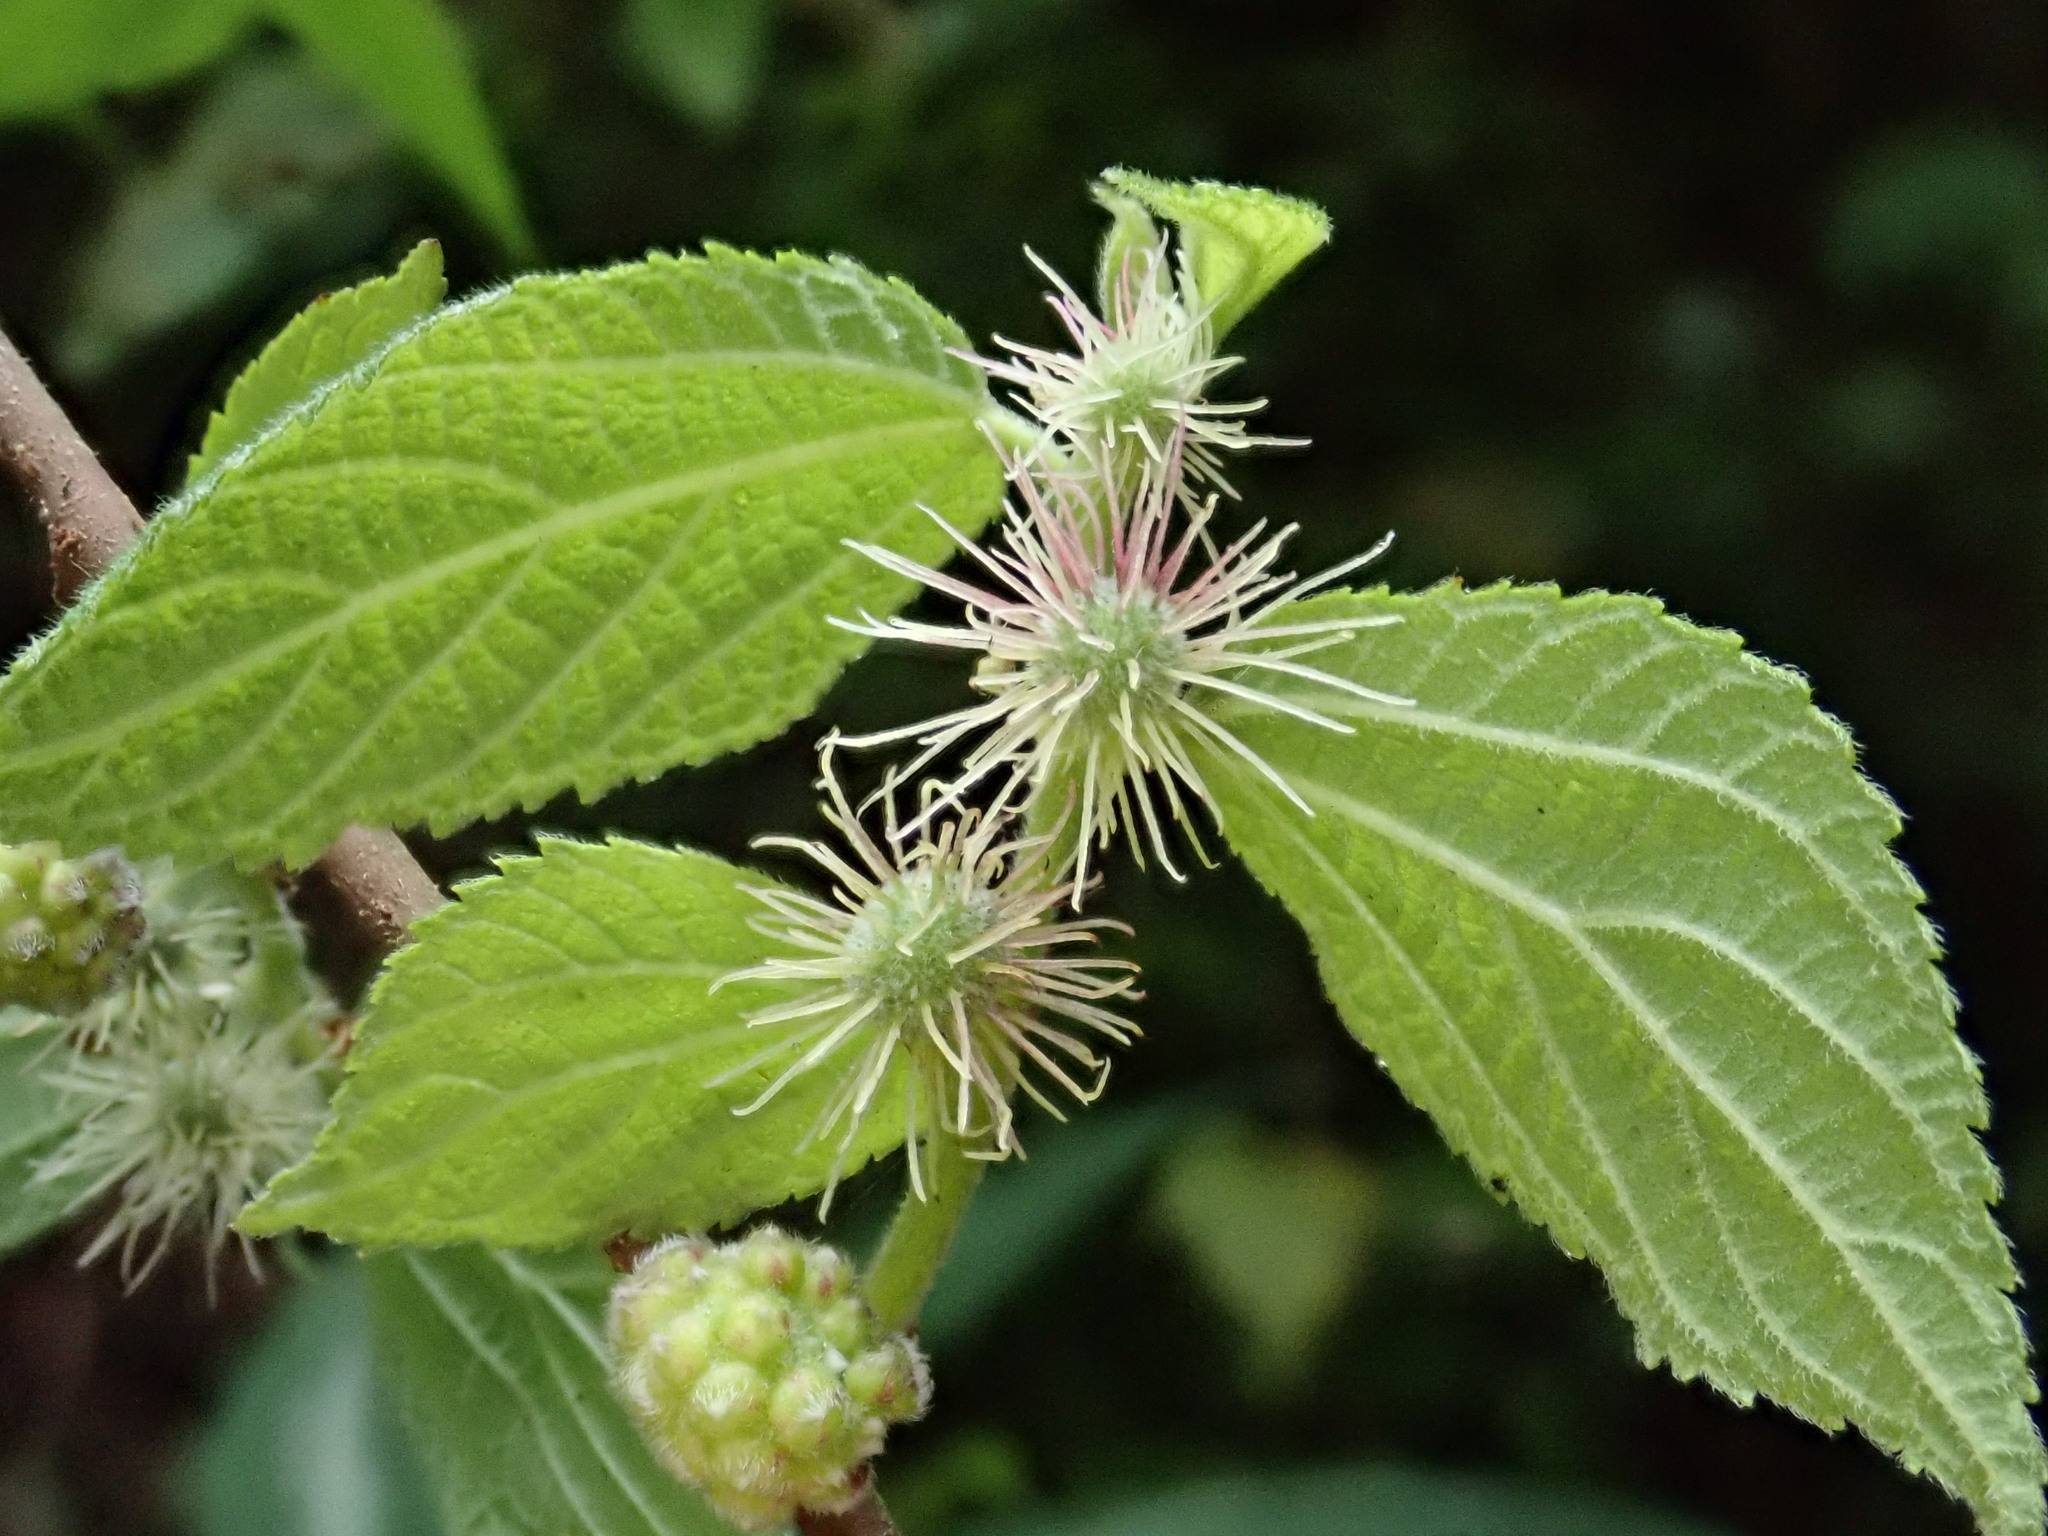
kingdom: Plantae
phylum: Tracheophyta
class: Magnoliopsida
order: Rosales
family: Moraceae
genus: Broussonetia
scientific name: Broussonetia monoica
